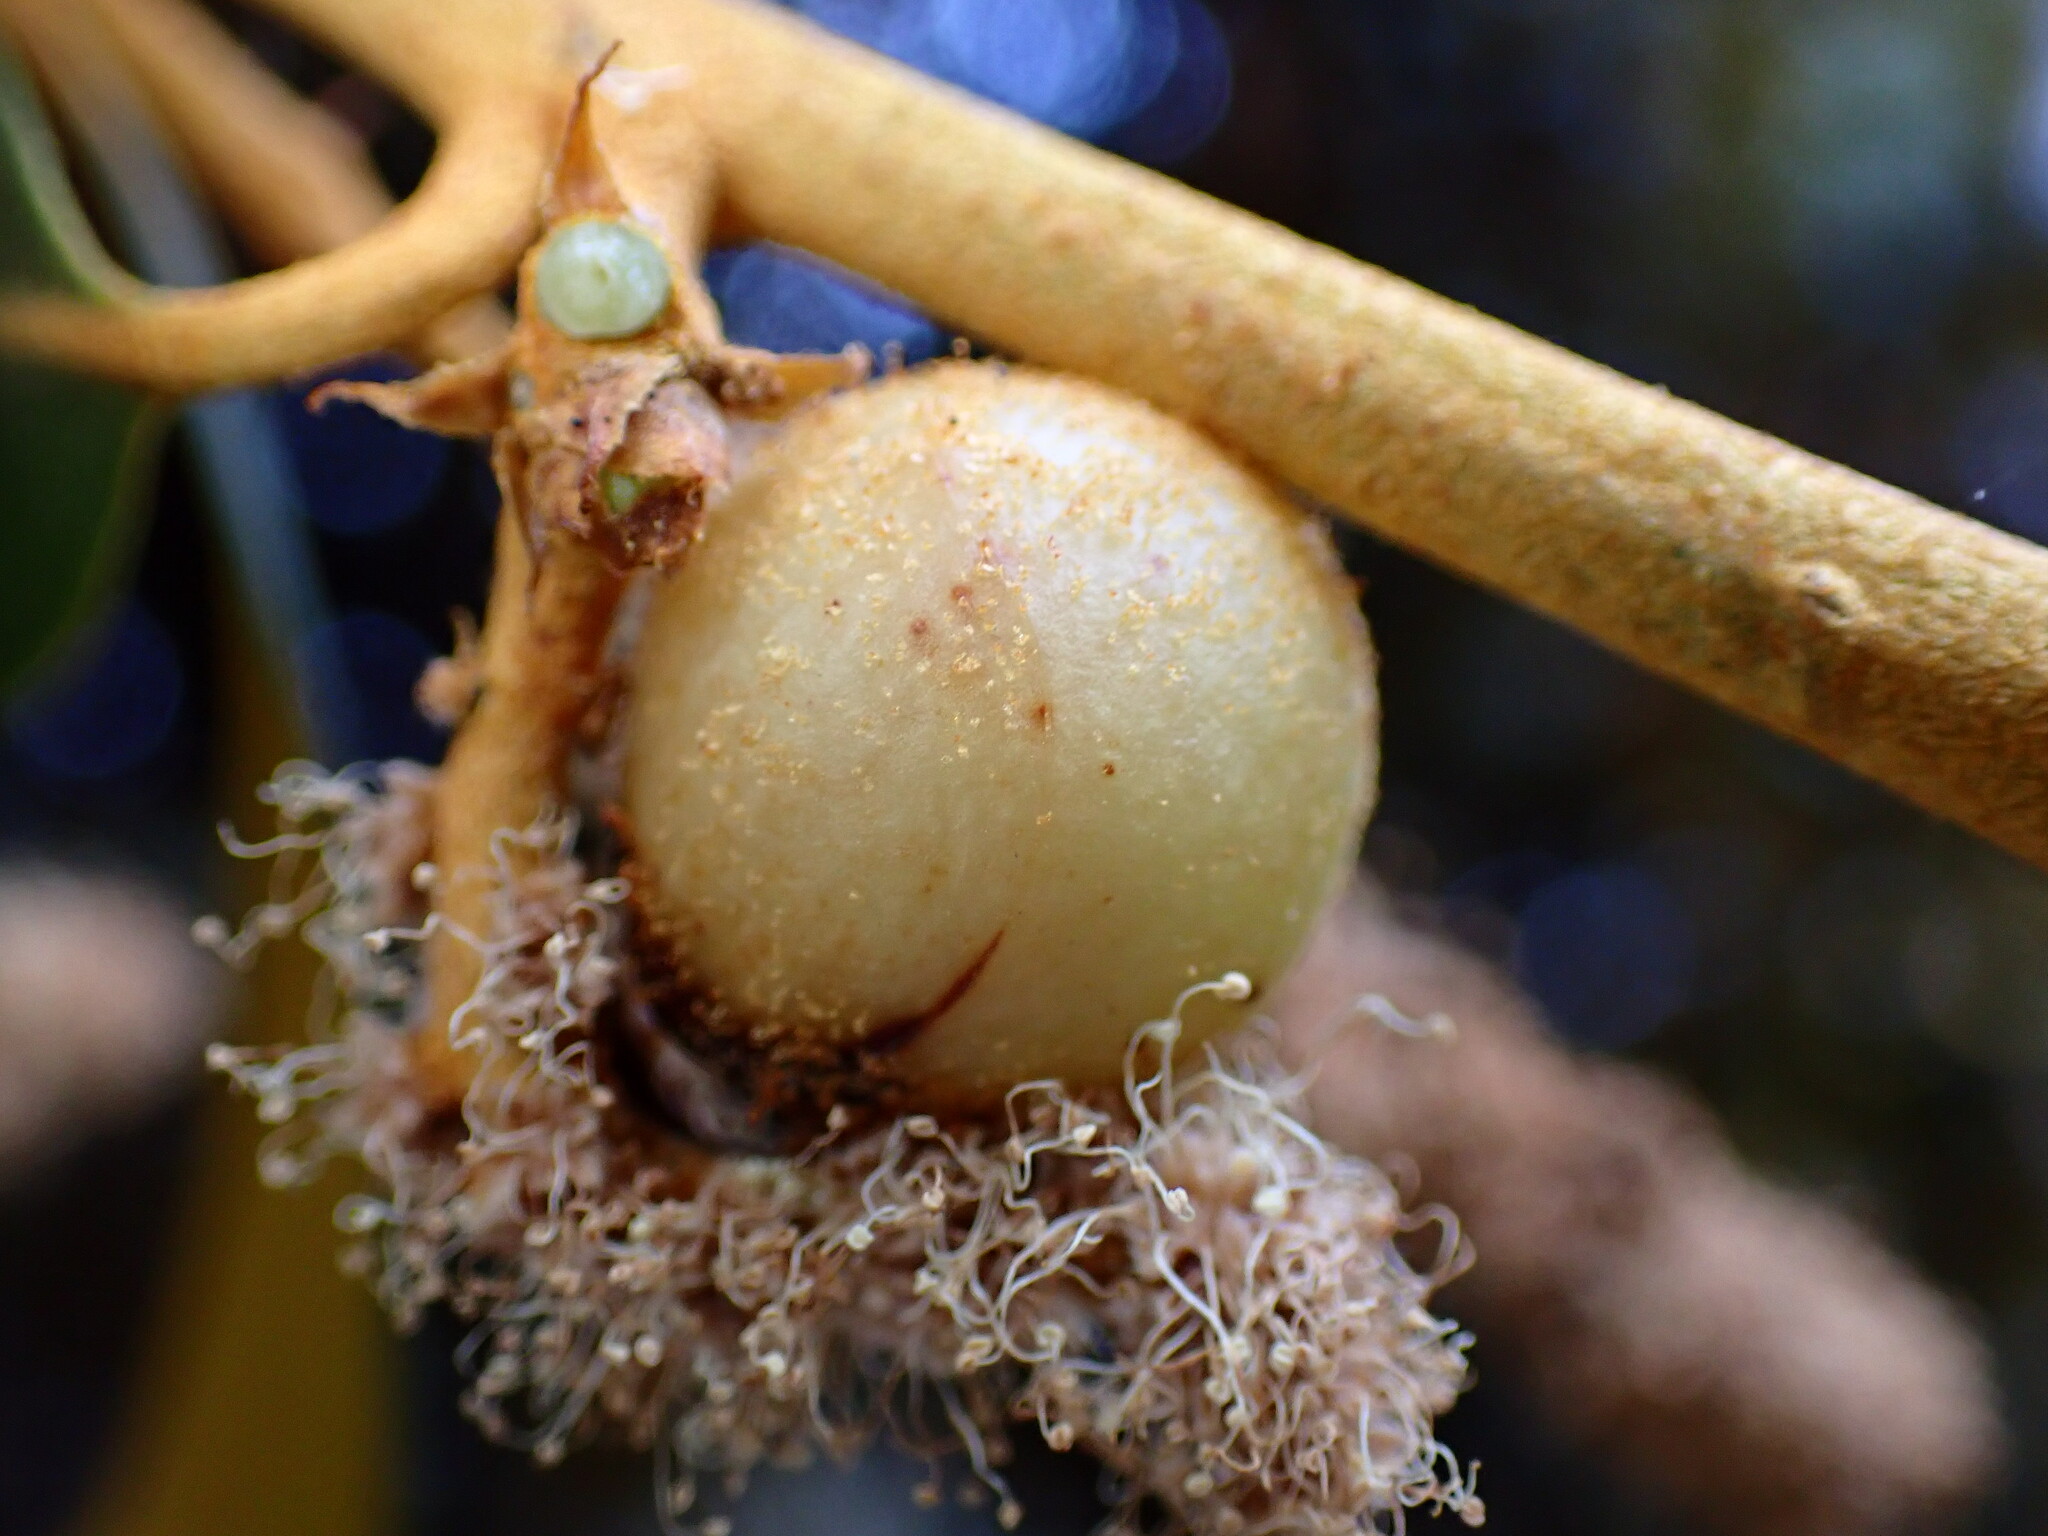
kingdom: Animalia
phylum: Arthropoda
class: Insecta
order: Hymenoptera
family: Cynipidae
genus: Synergus
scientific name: Synergus castanopsidis
